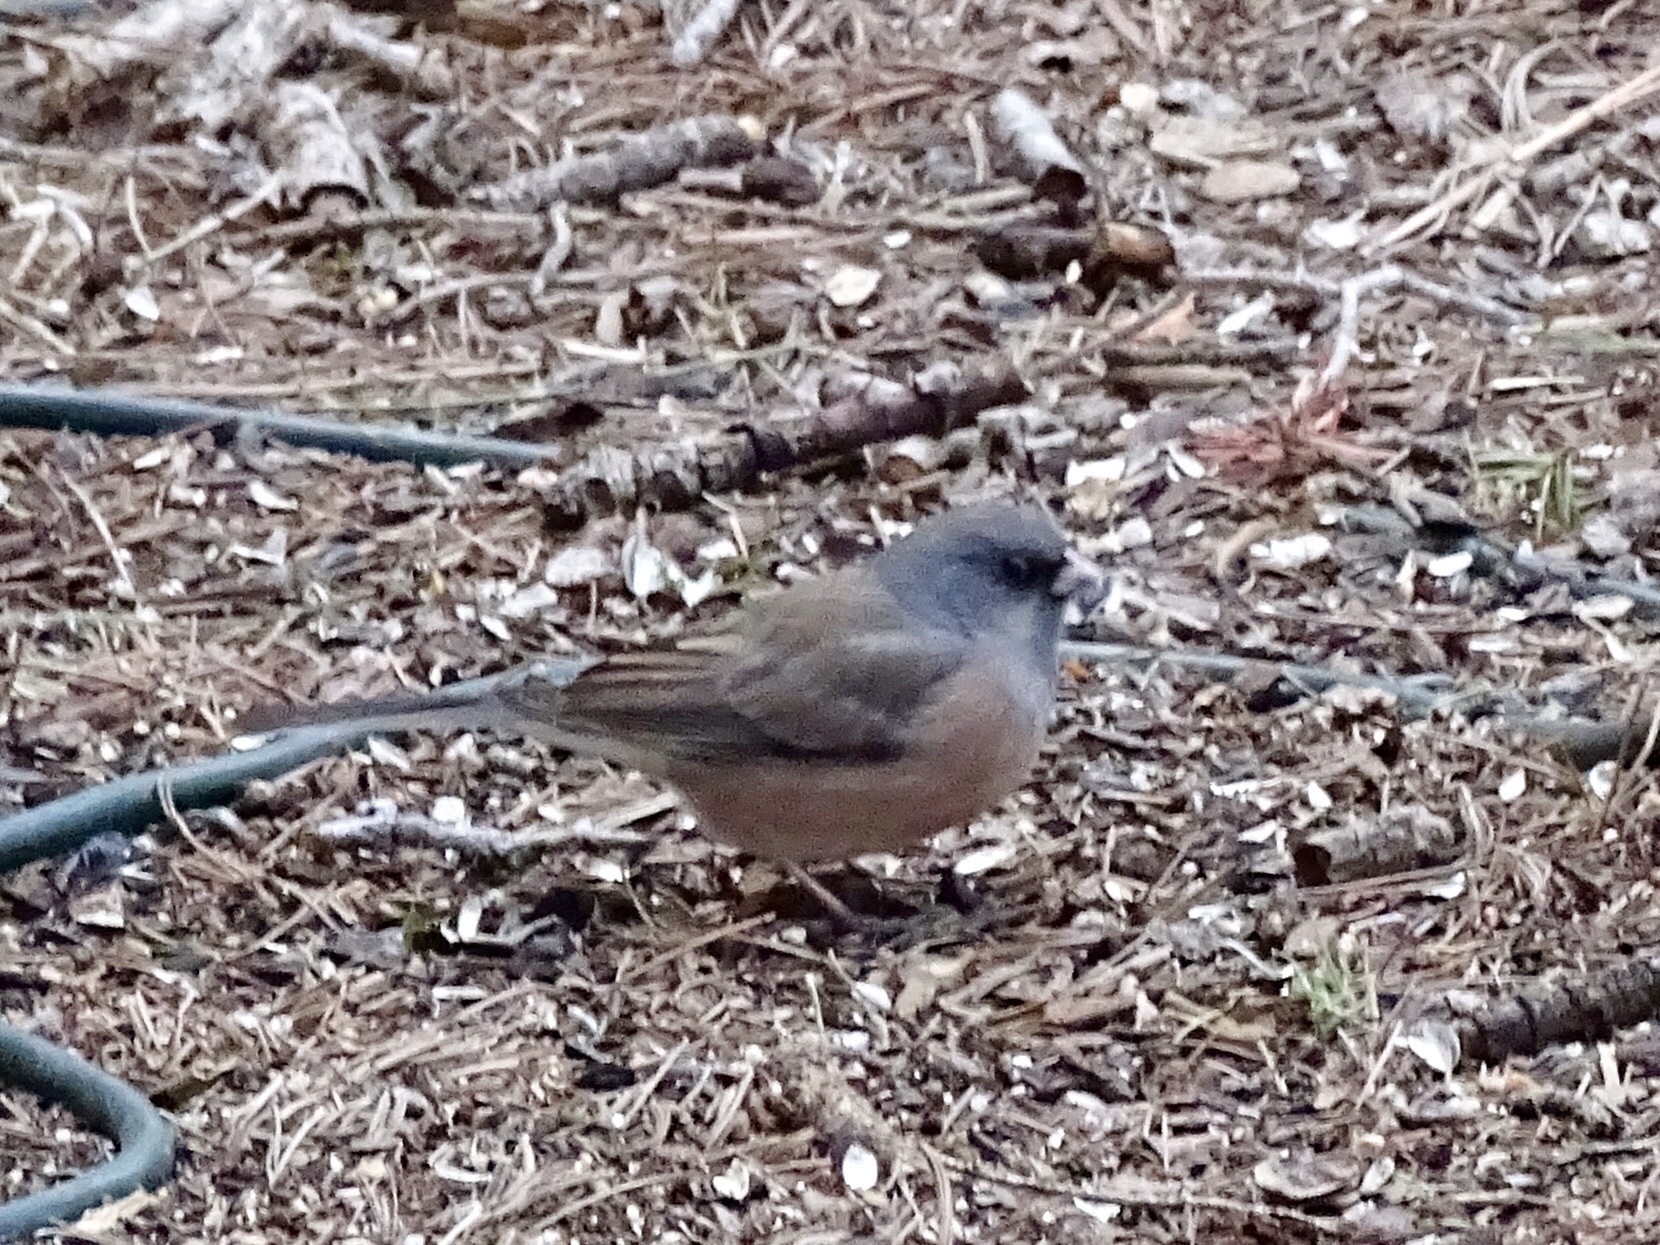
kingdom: Animalia
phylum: Chordata
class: Aves
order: Passeriformes
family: Passerellidae
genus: Junco
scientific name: Junco hyemalis
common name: Dark-eyed junco
